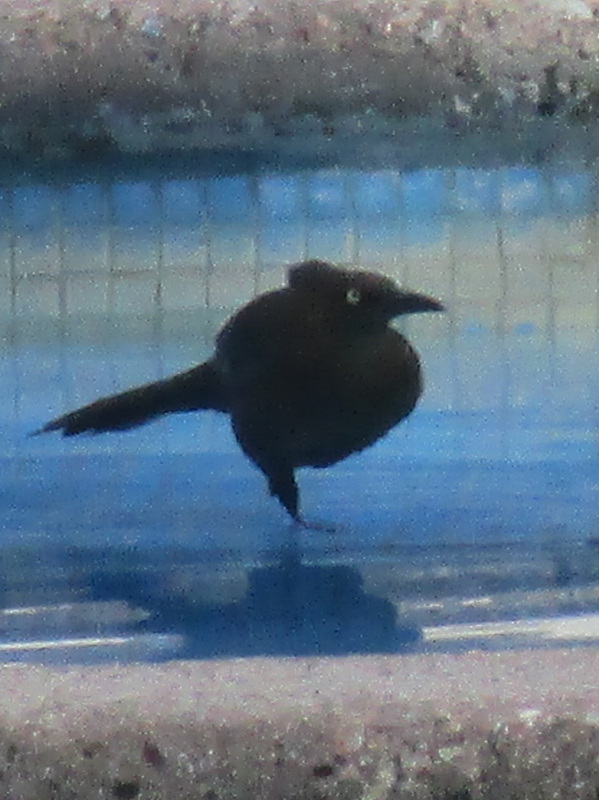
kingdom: Animalia
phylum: Chordata
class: Aves
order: Passeriformes
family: Icteridae
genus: Quiscalus
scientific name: Quiscalus mexicanus
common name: Great-tailed grackle
